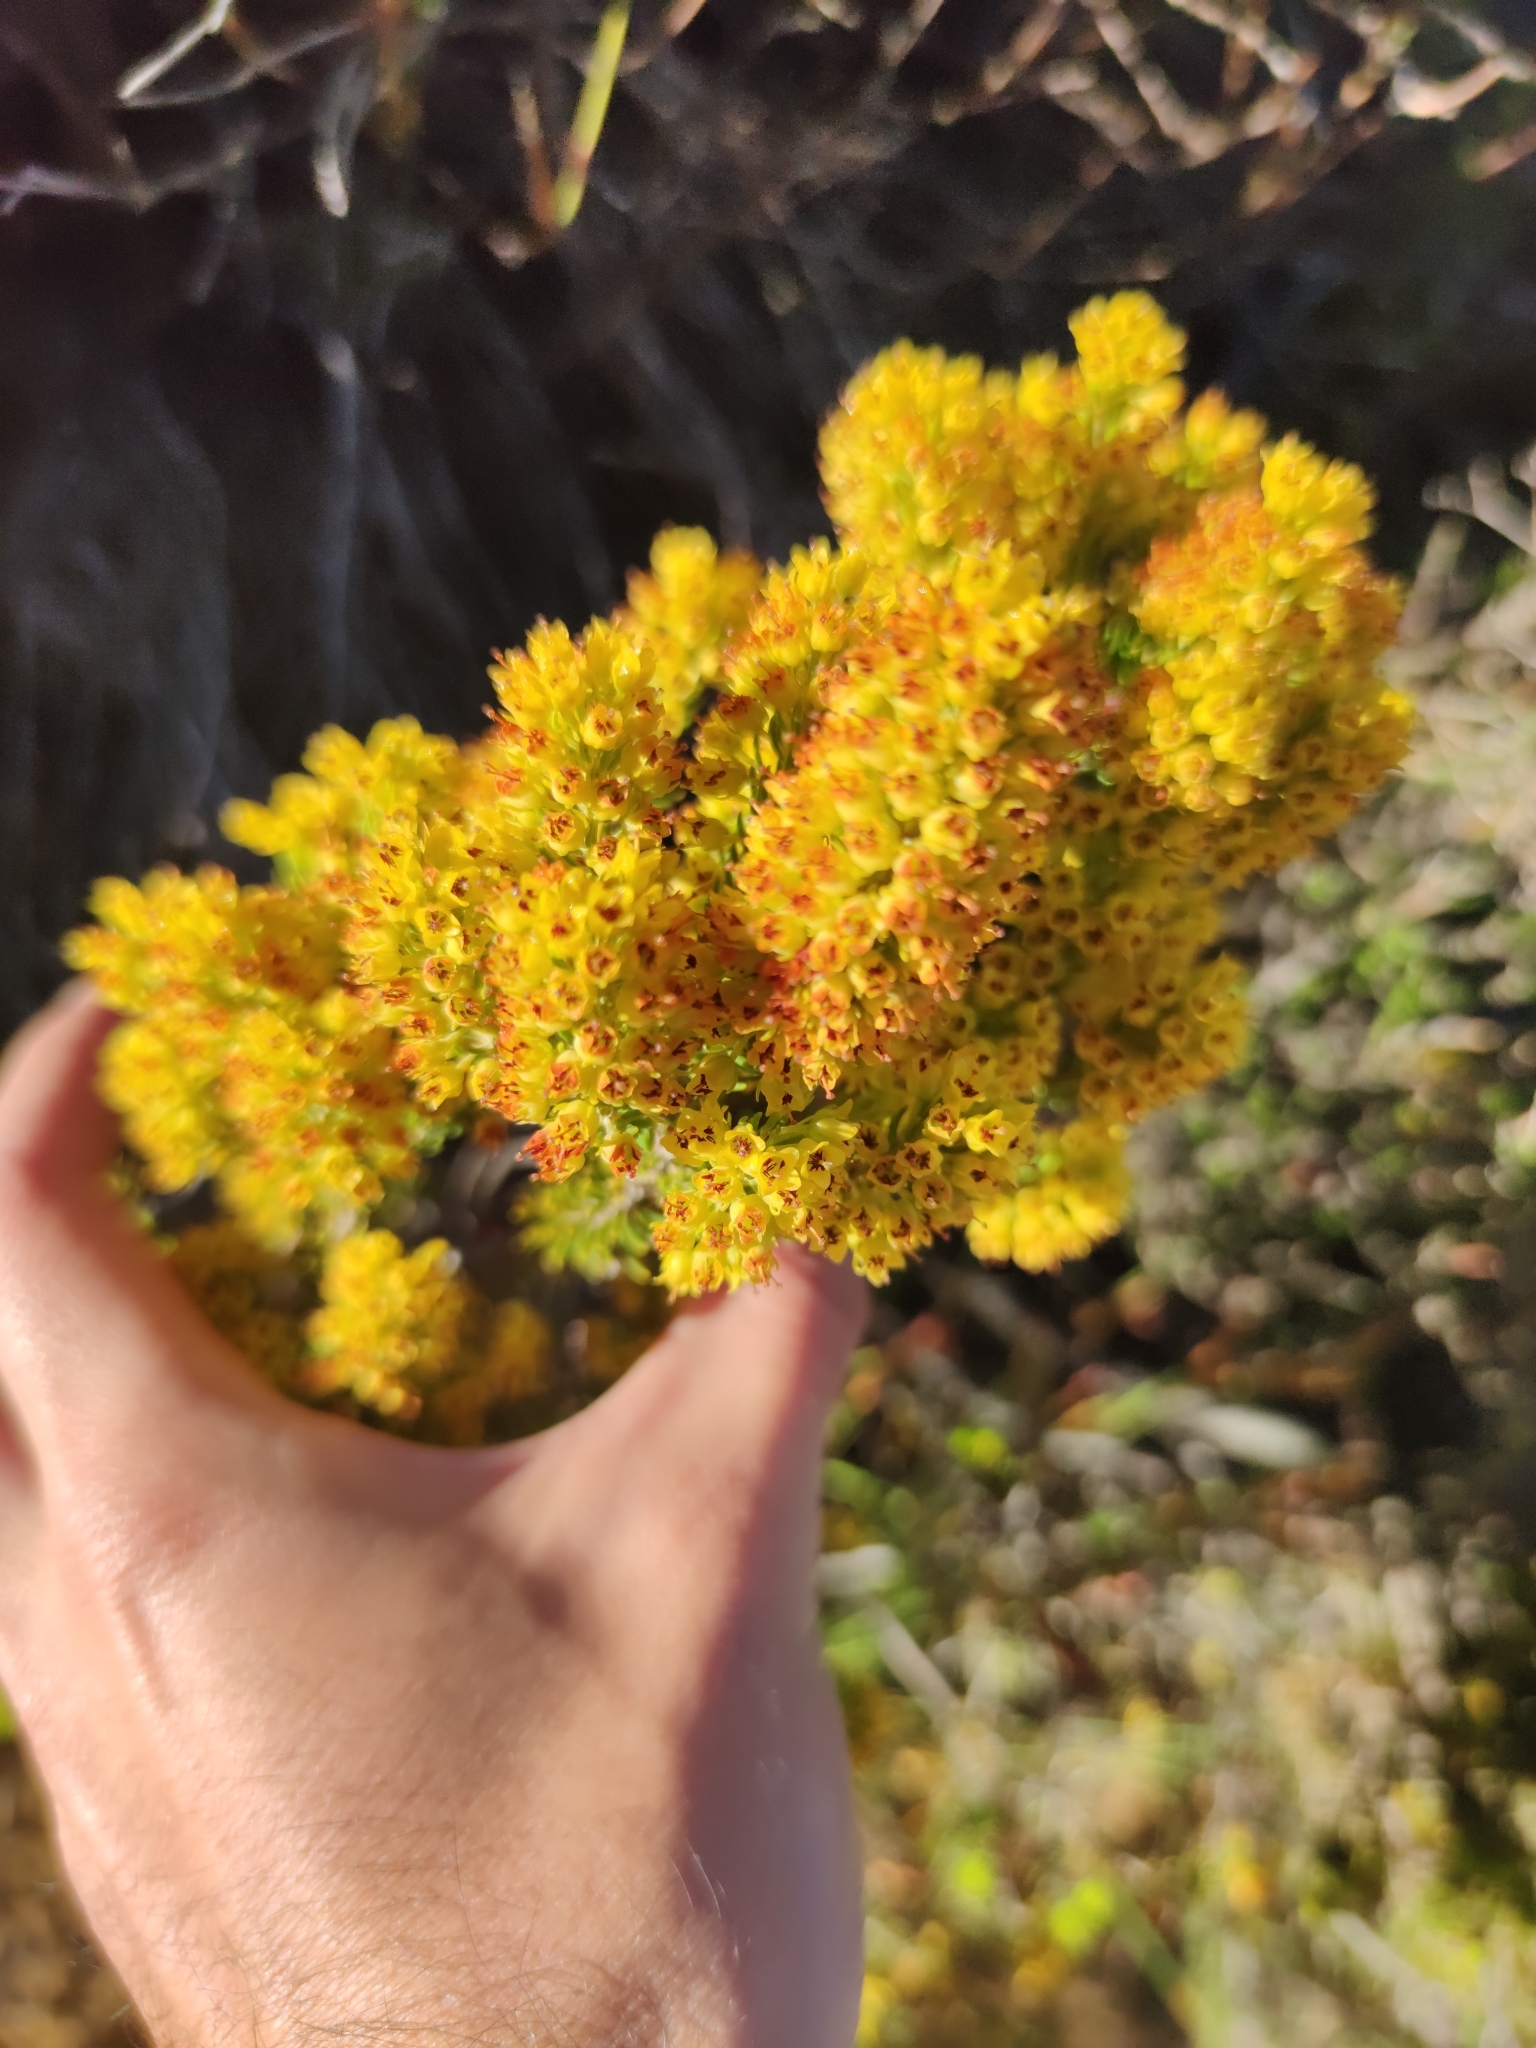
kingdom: Plantae
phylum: Tracheophyta
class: Magnoliopsida
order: Ericales
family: Ericaceae
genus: Erica
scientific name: Erica parilis
